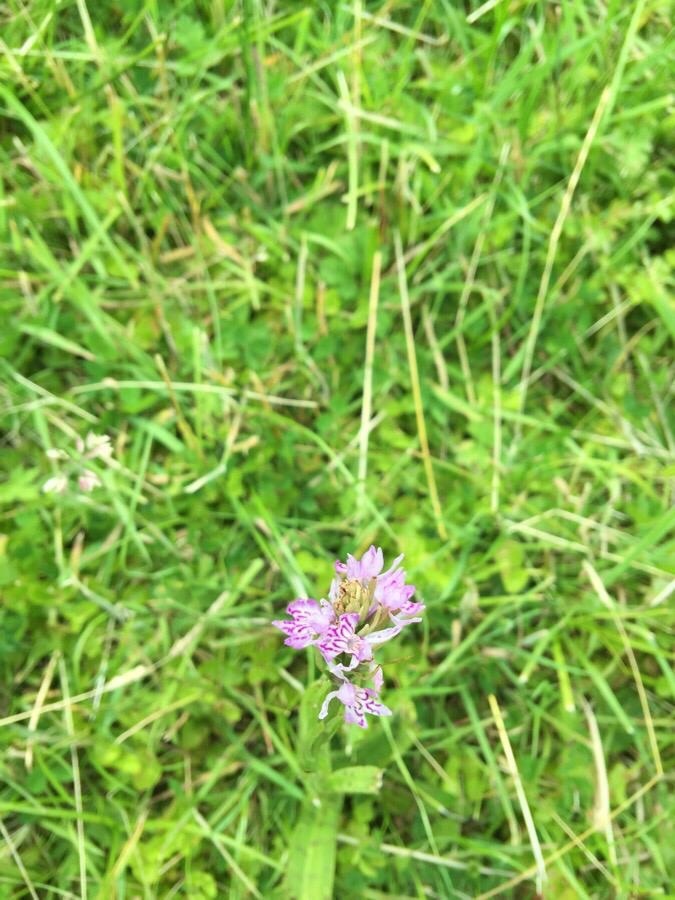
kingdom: Plantae
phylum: Tracheophyta
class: Liliopsida
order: Asparagales
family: Orchidaceae
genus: Dactylorhiza
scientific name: Dactylorhiza maculata
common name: Heath spotted-orchid
